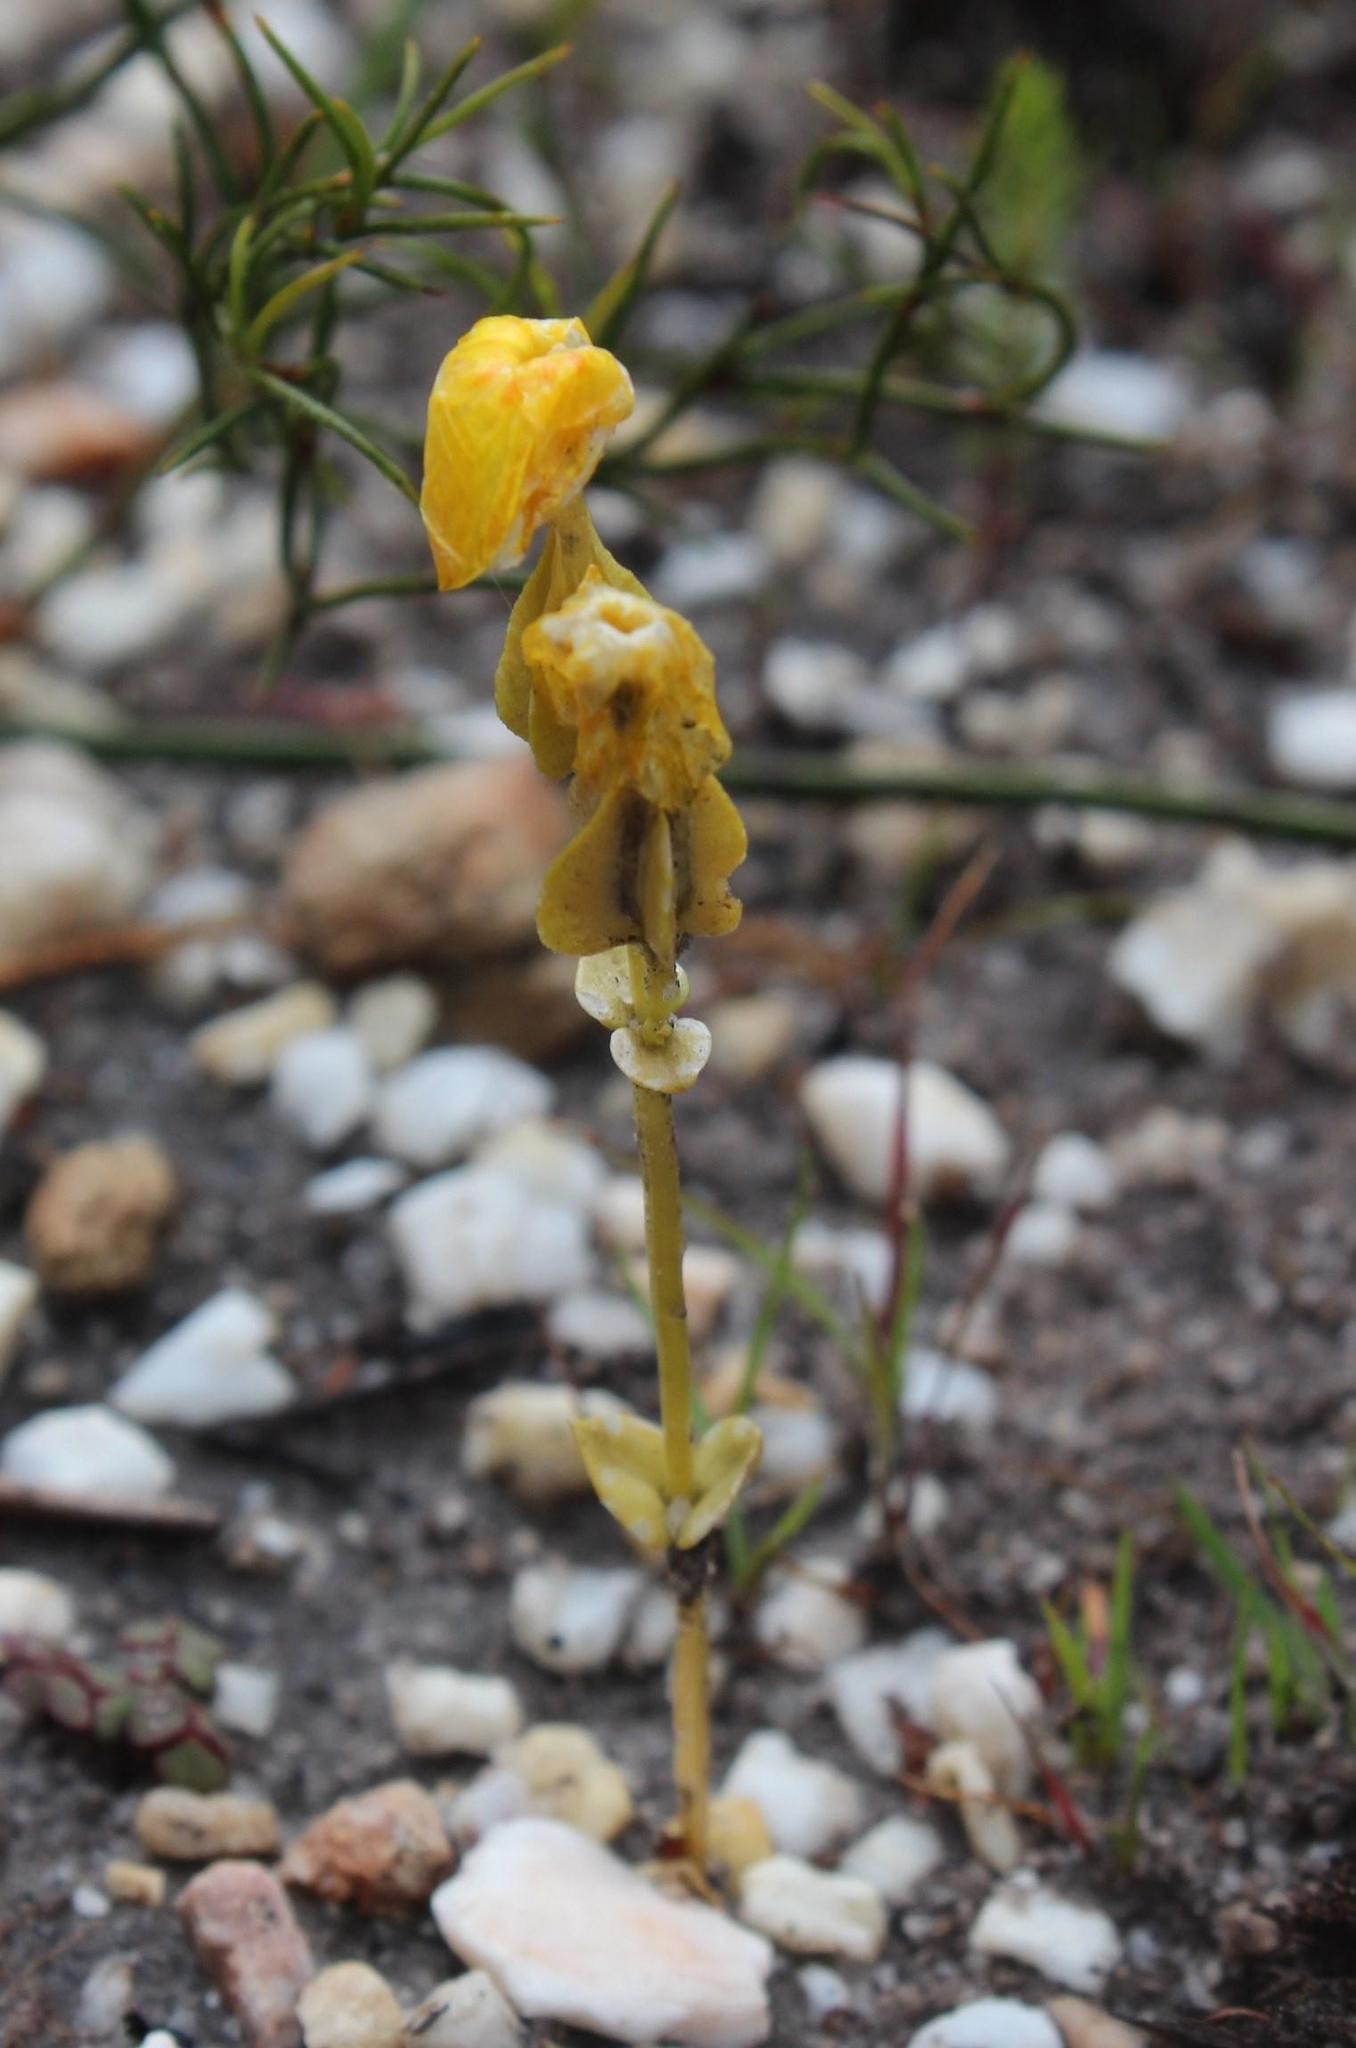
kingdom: Plantae
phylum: Tracheophyta
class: Magnoliopsida
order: Gentianales
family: Gentianaceae
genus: Sebaea
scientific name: Sebaea exacoides
